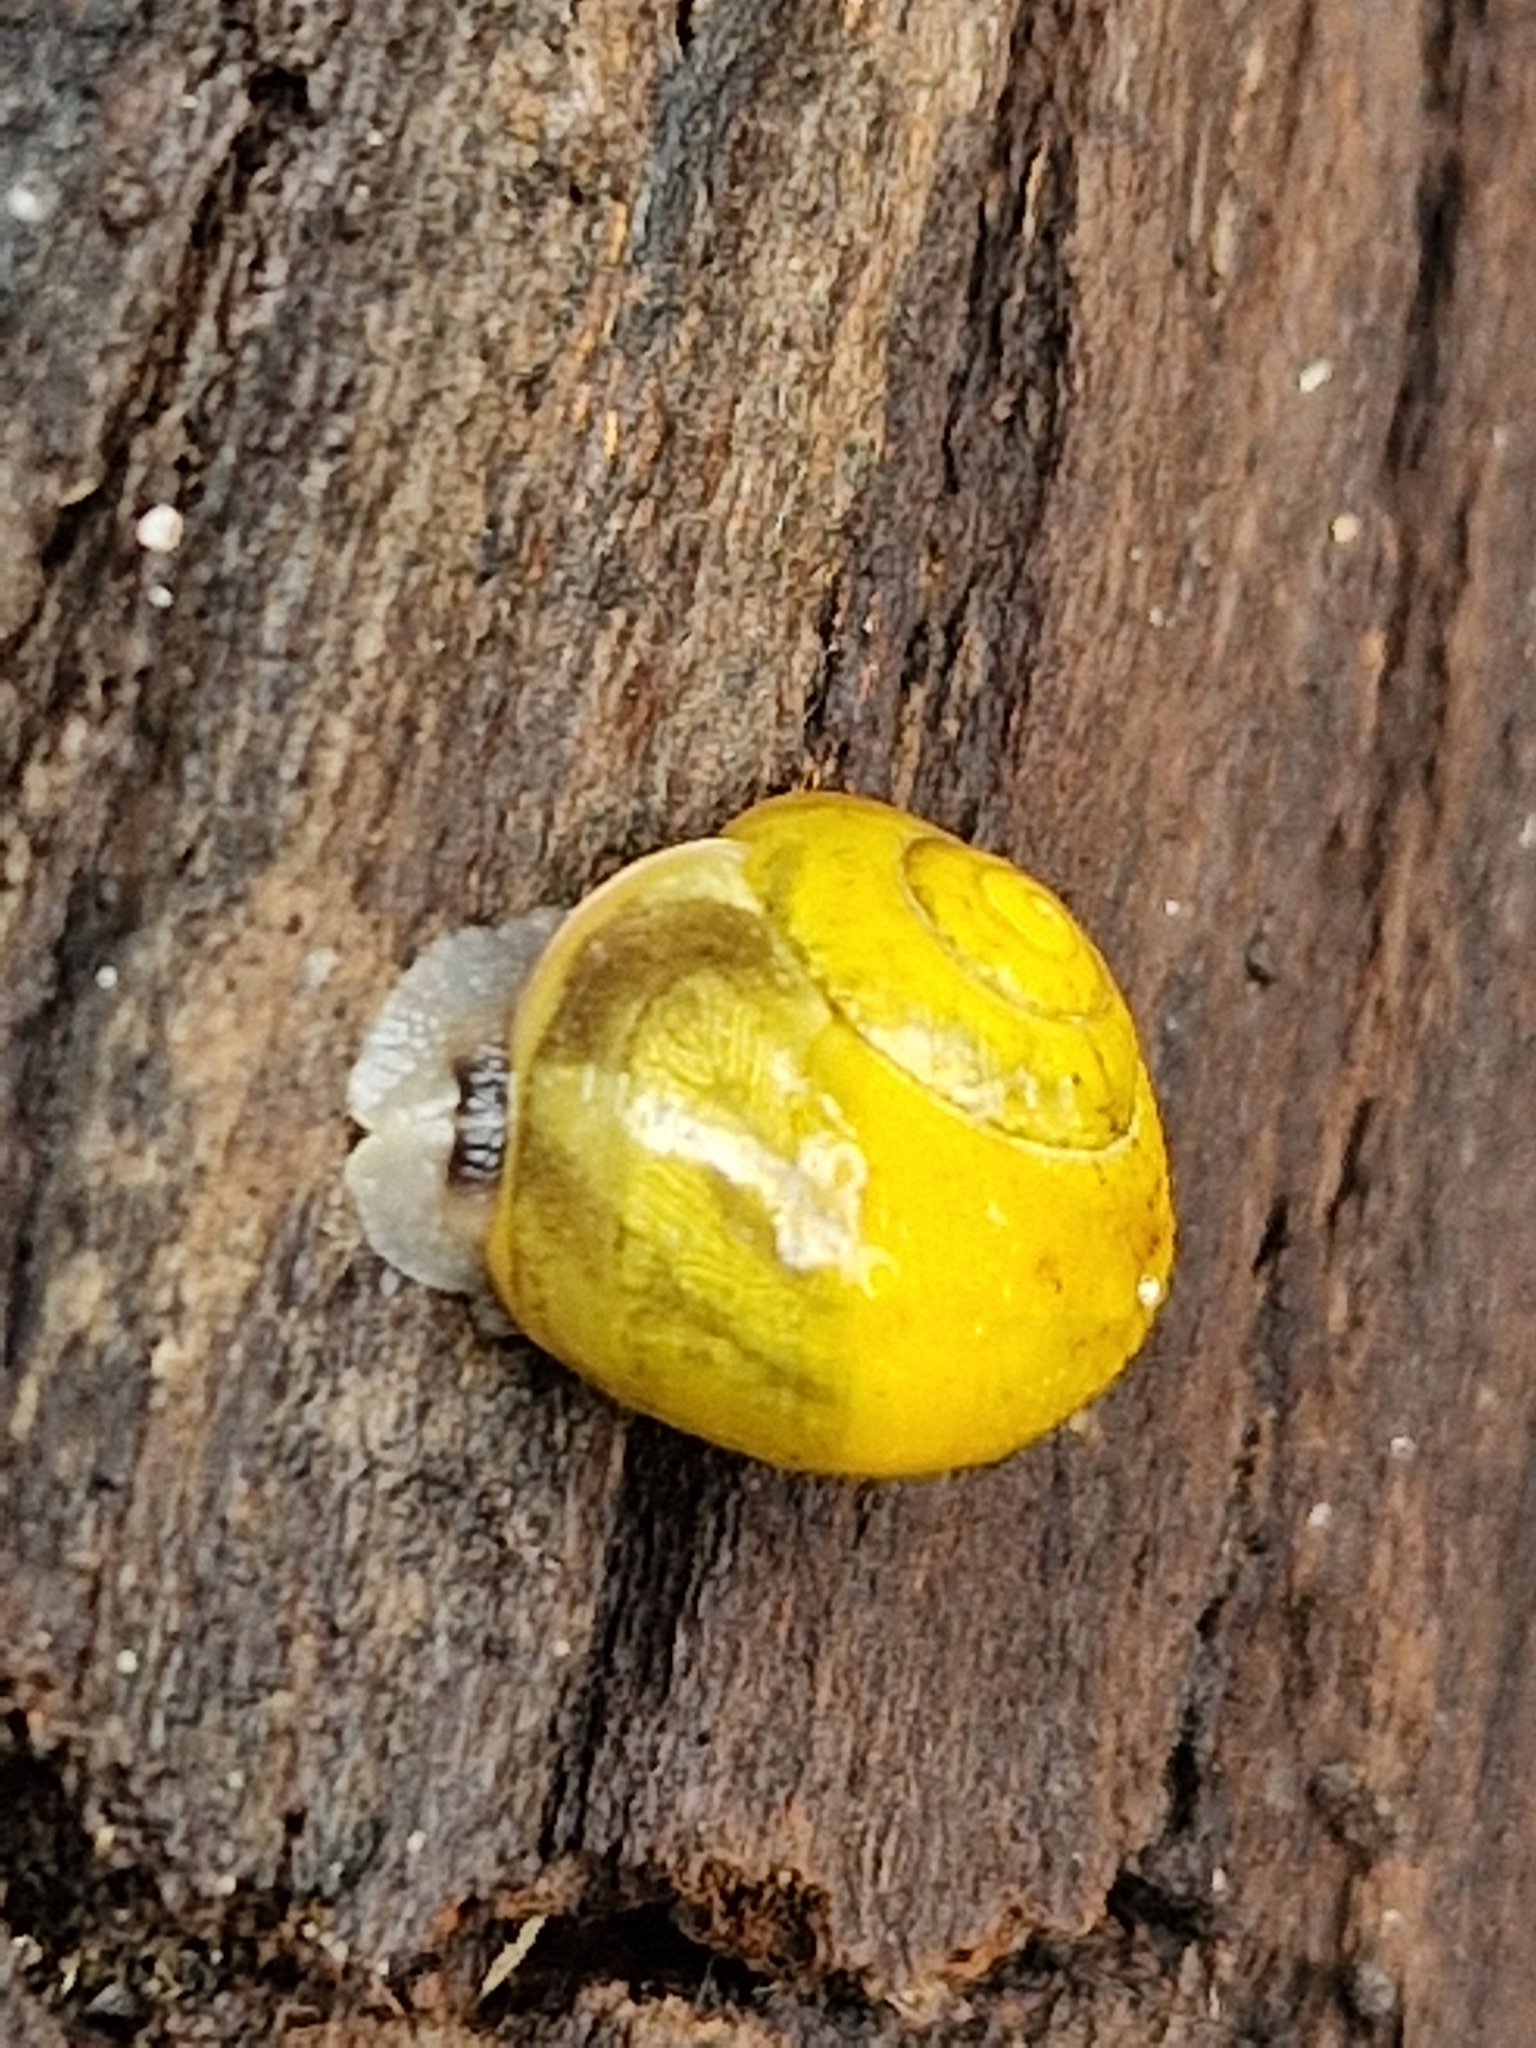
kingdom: Animalia
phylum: Mollusca
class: Gastropoda
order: Stylommatophora
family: Helicidae
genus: Cepaea
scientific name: Cepaea
